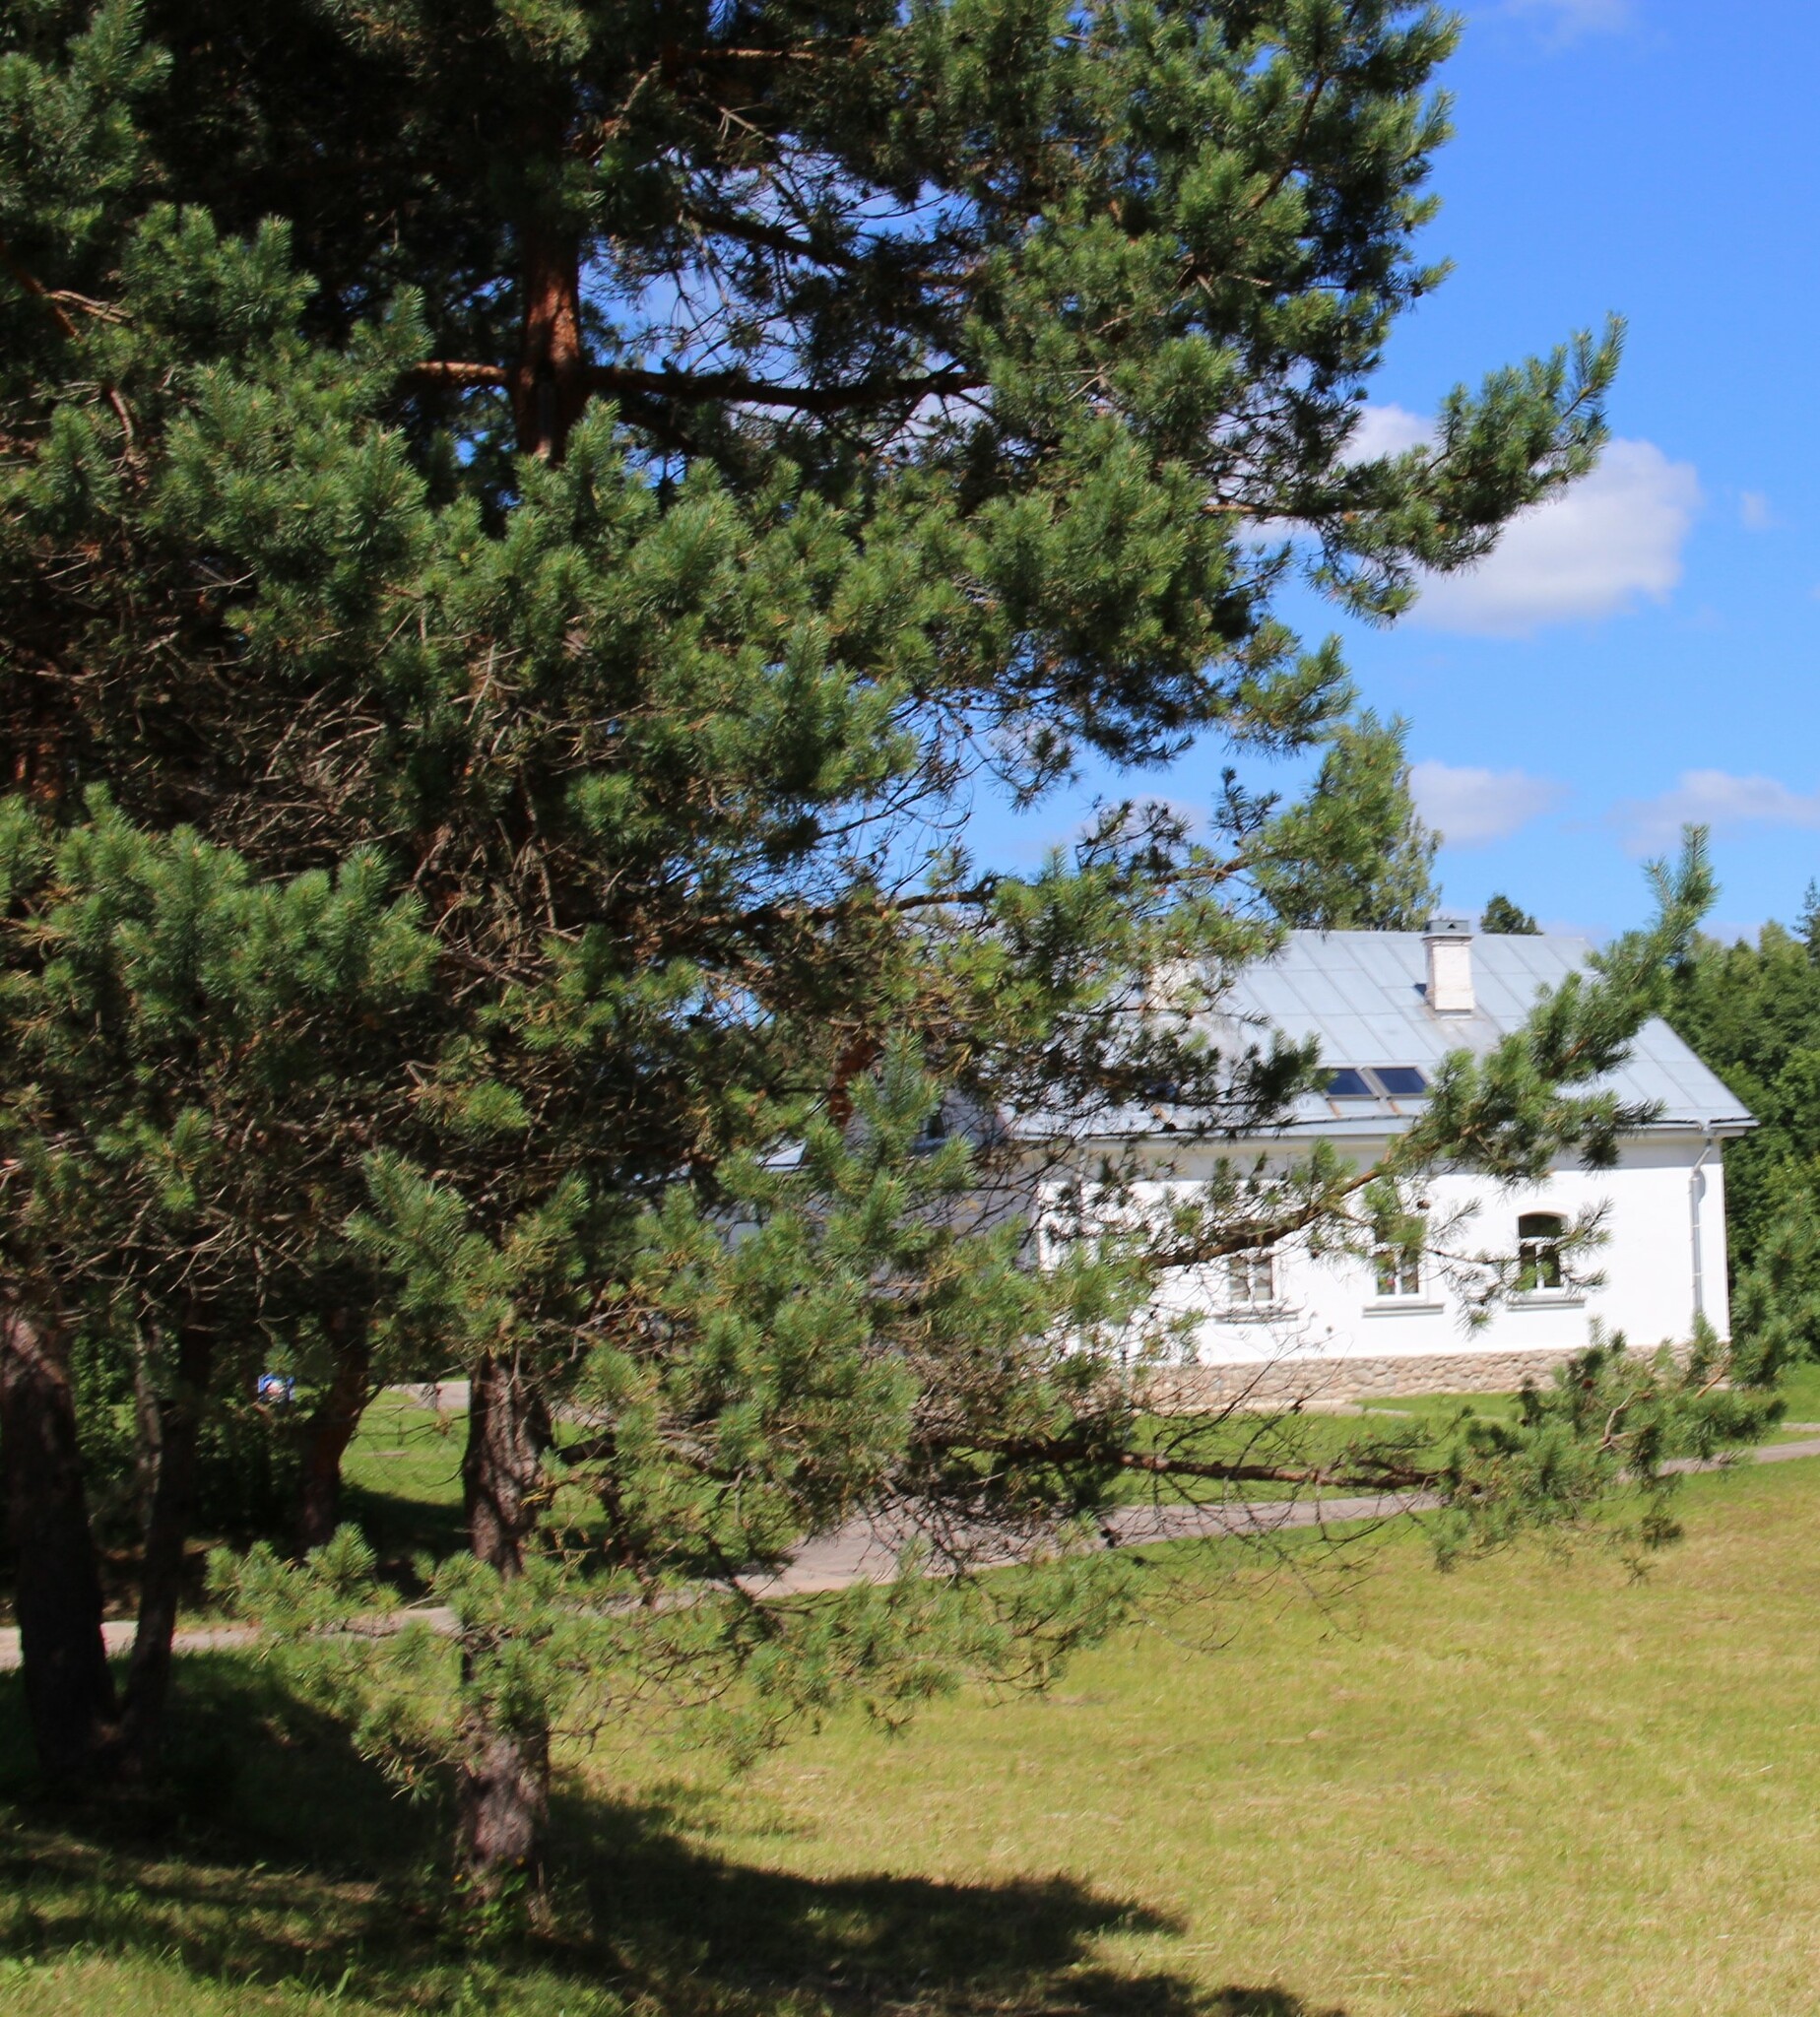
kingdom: Plantae
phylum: Tracheophyta
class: Pinopsida
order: Pinales
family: Pinaceae
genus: Pinus
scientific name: Pinus sylvestris
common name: Scots pine
